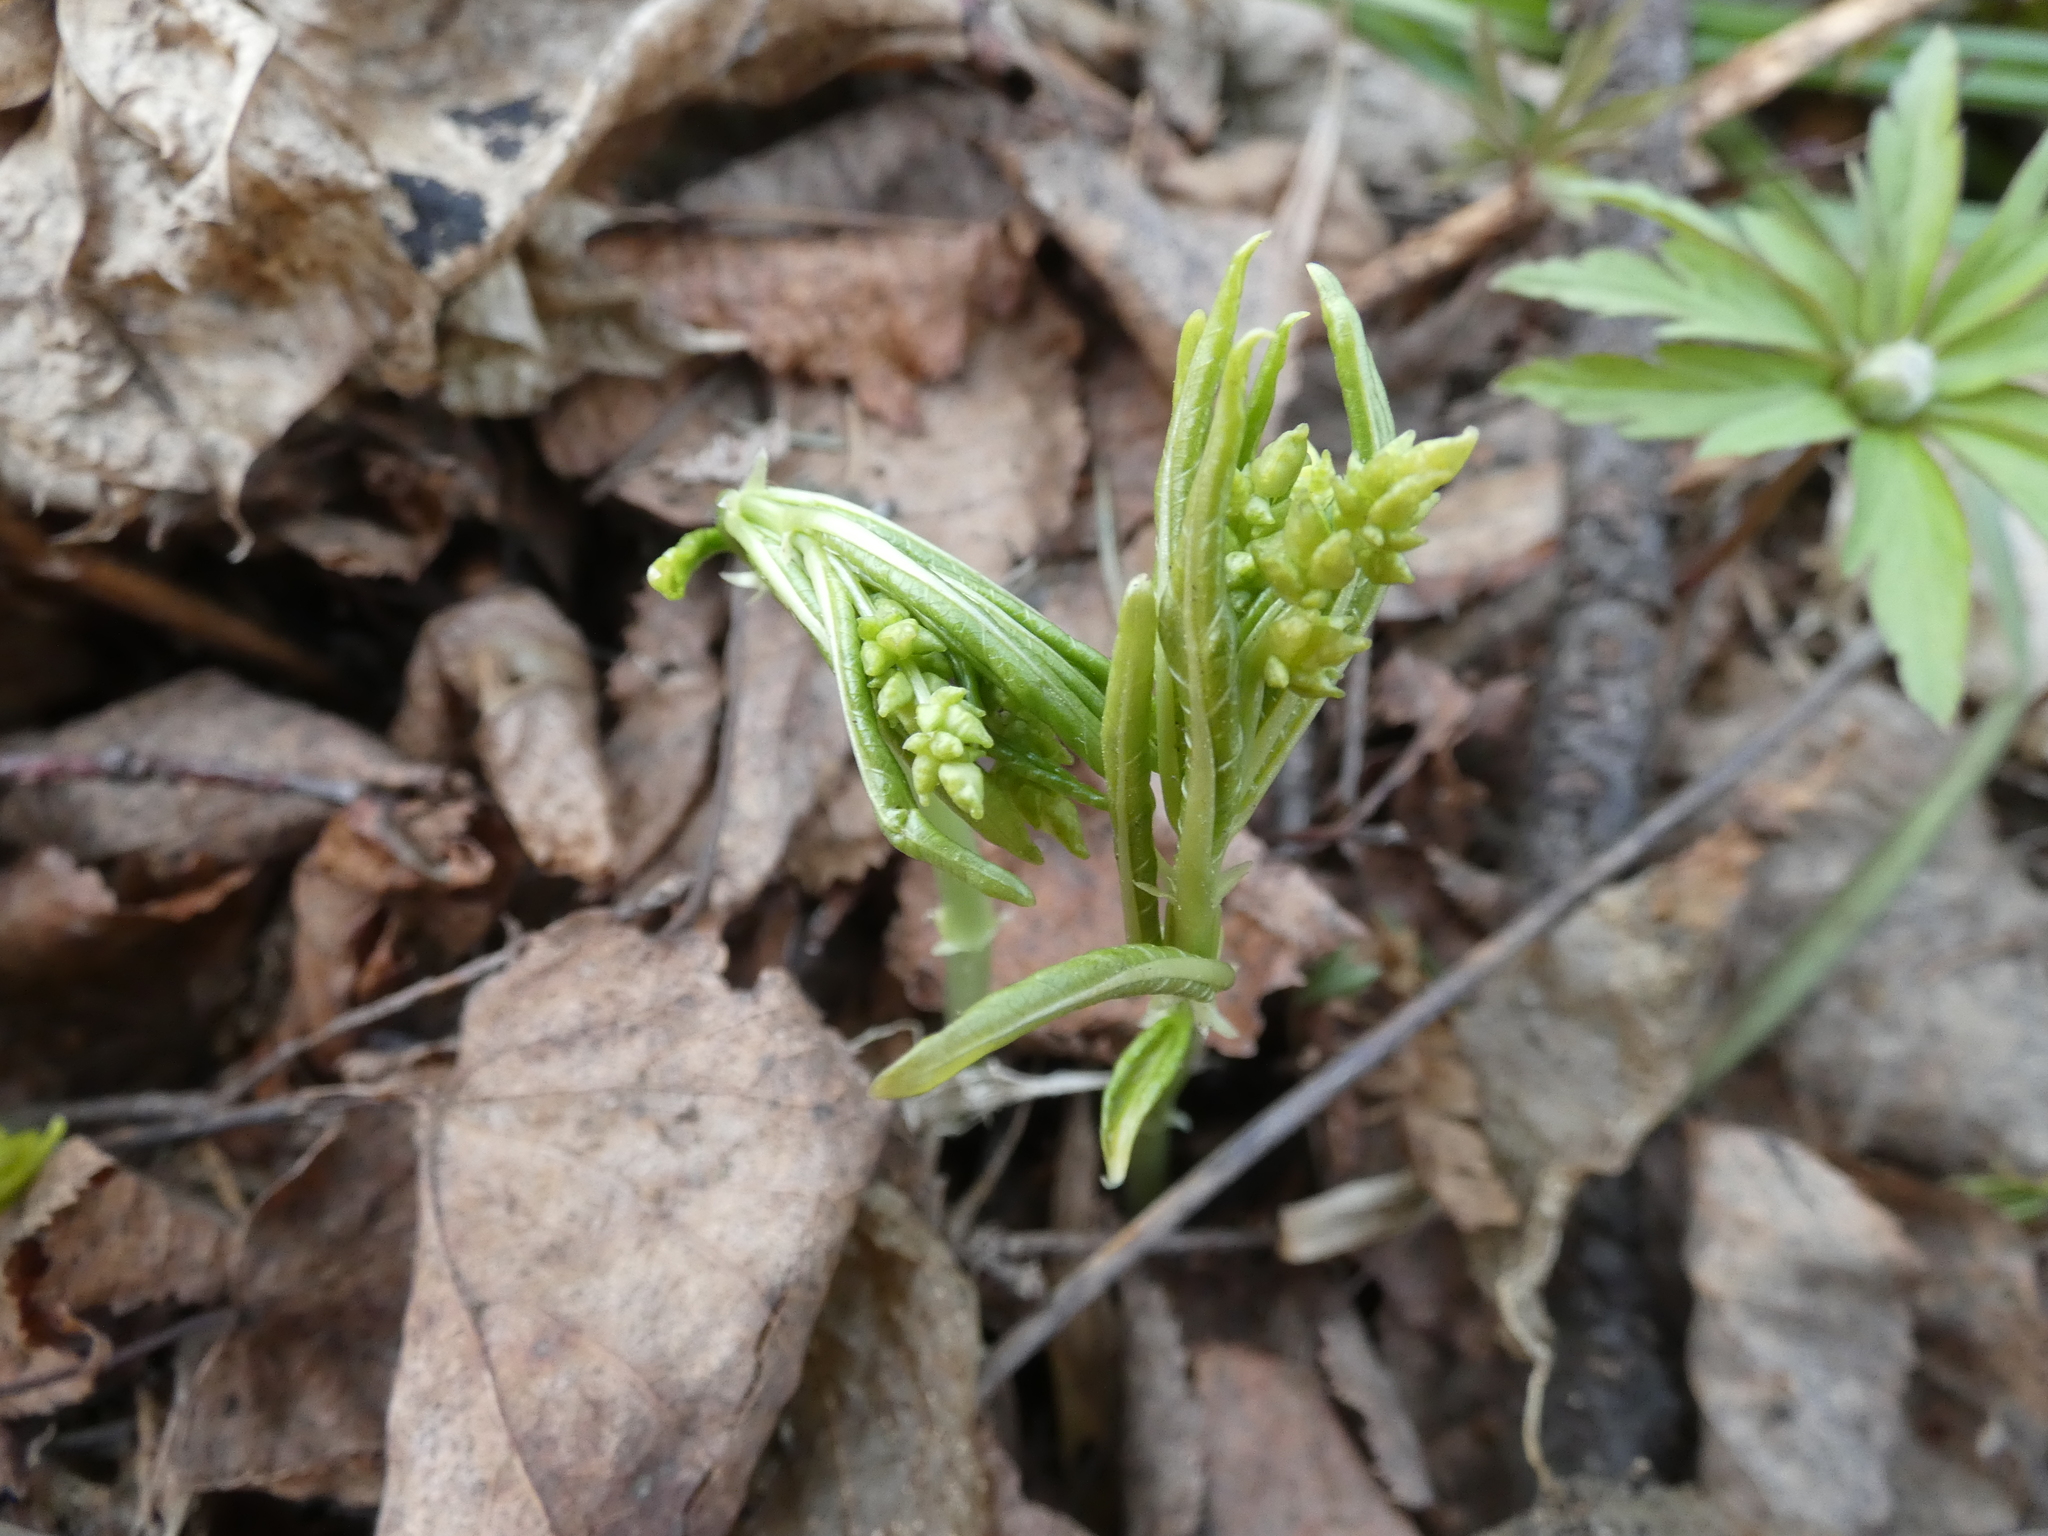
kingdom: Plantae
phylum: Tracheophyta
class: Magnoliopsida
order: Malpighiales
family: Euphorbiaceae
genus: Mercurialis
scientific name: Mercurialis perennis
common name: Dog mercury
